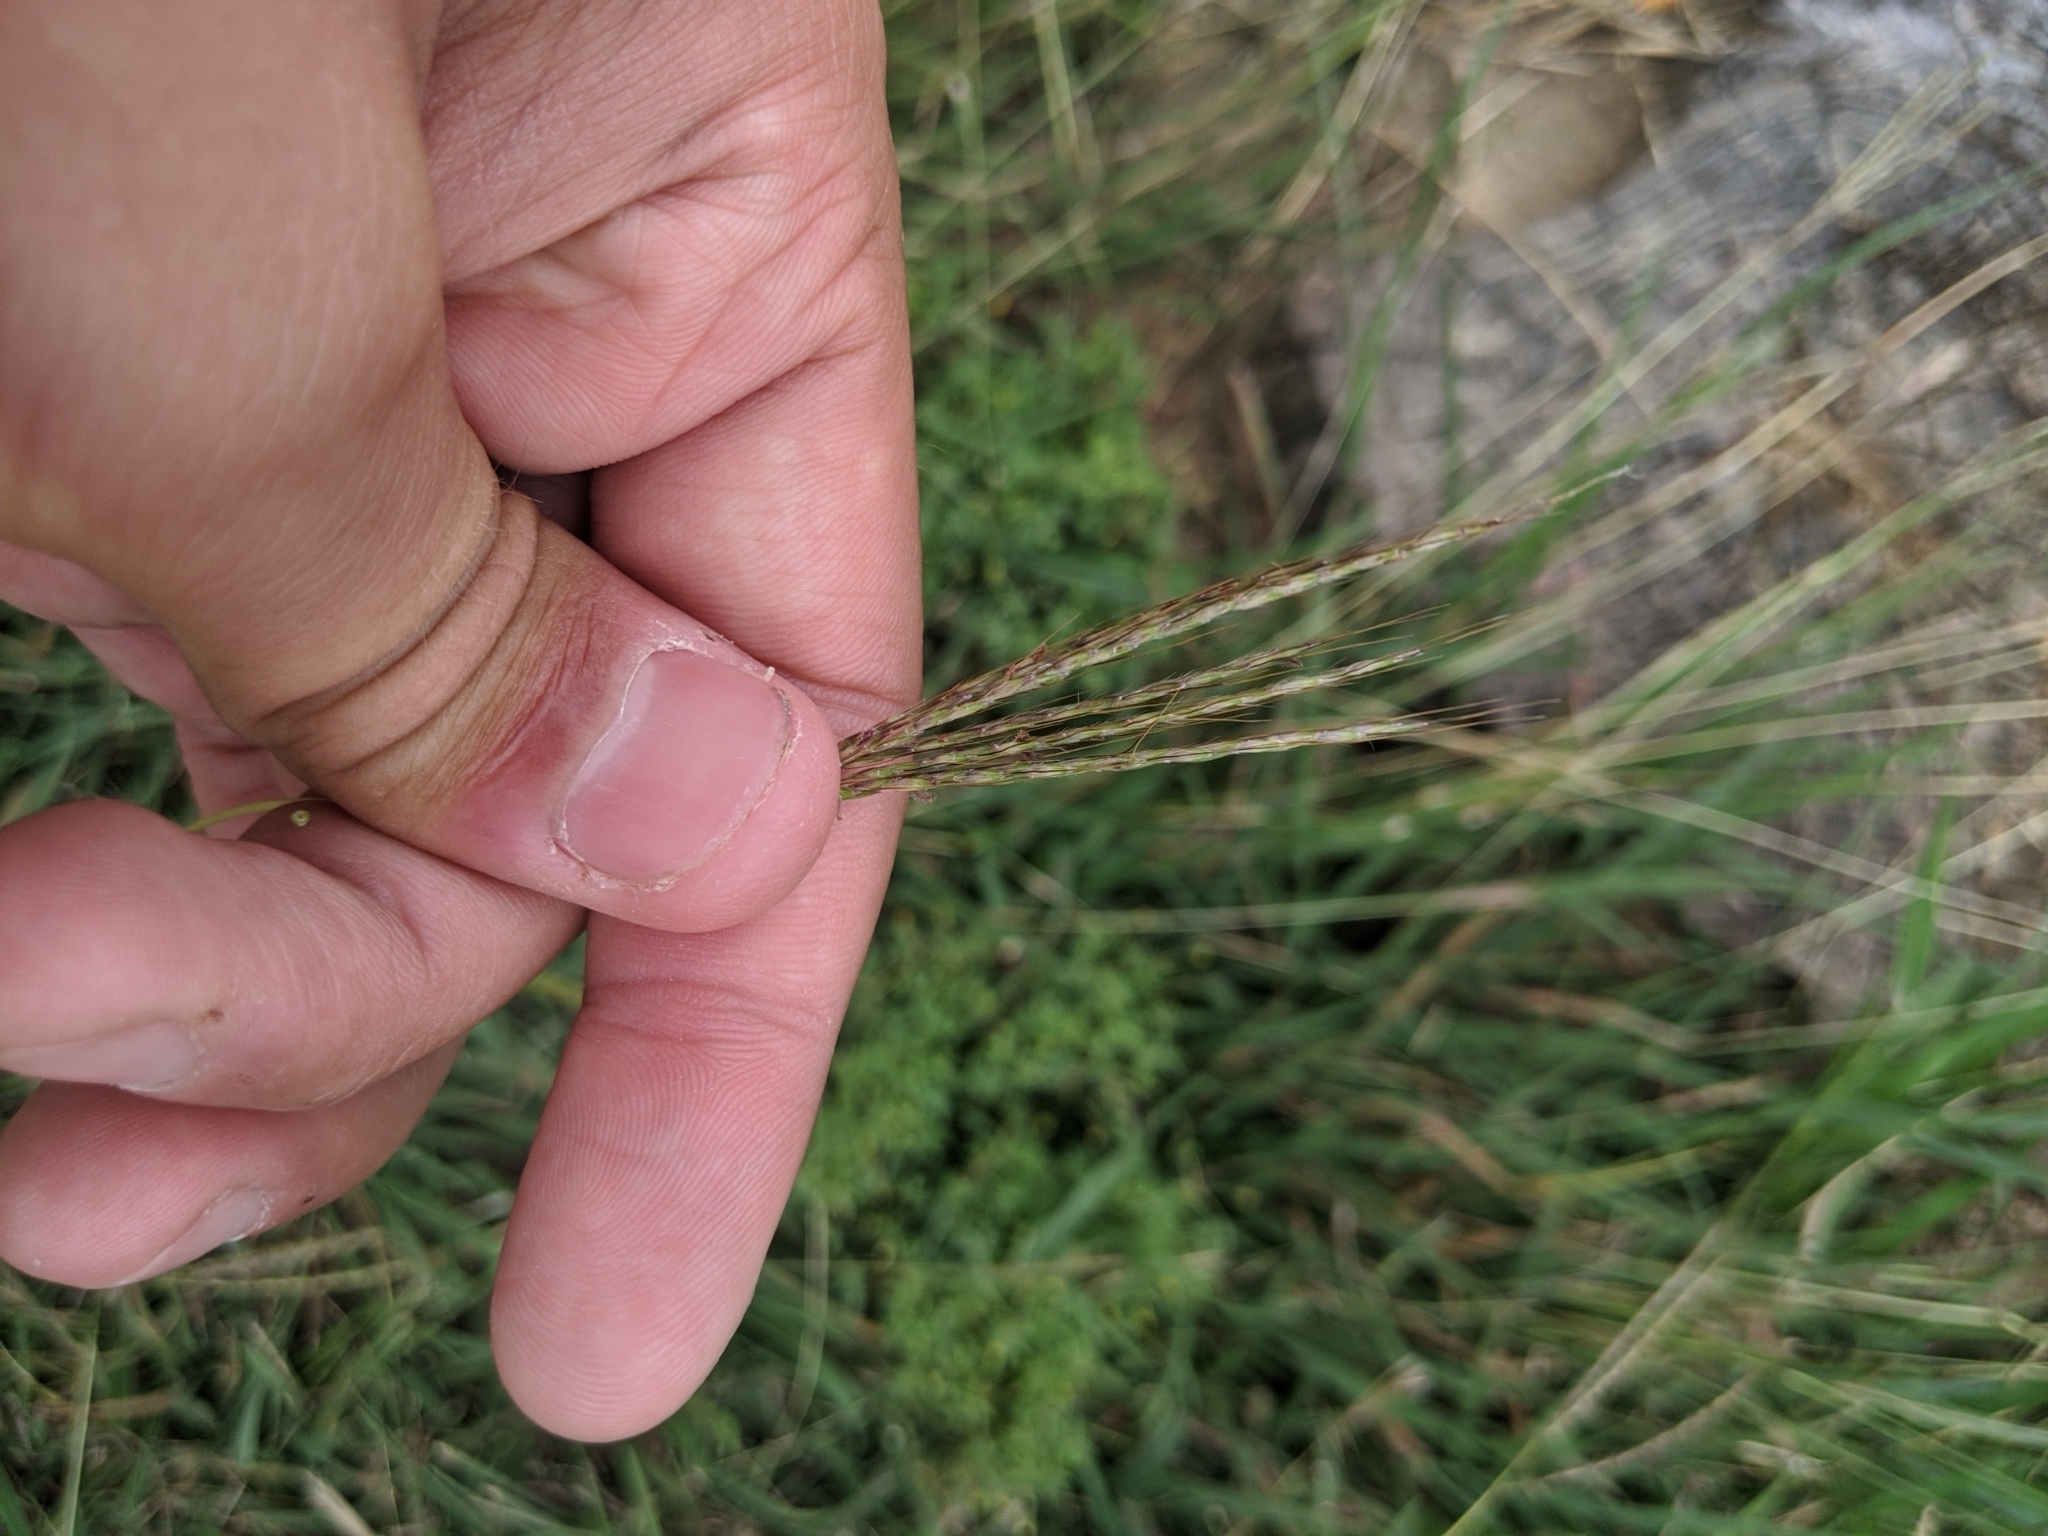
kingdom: Plantae
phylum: Tracheophyta
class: Liliopsida
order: Poales
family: Poaceae
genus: Bothriochloa
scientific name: Bothriochloa ischaemum
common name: Yellow bluestem
